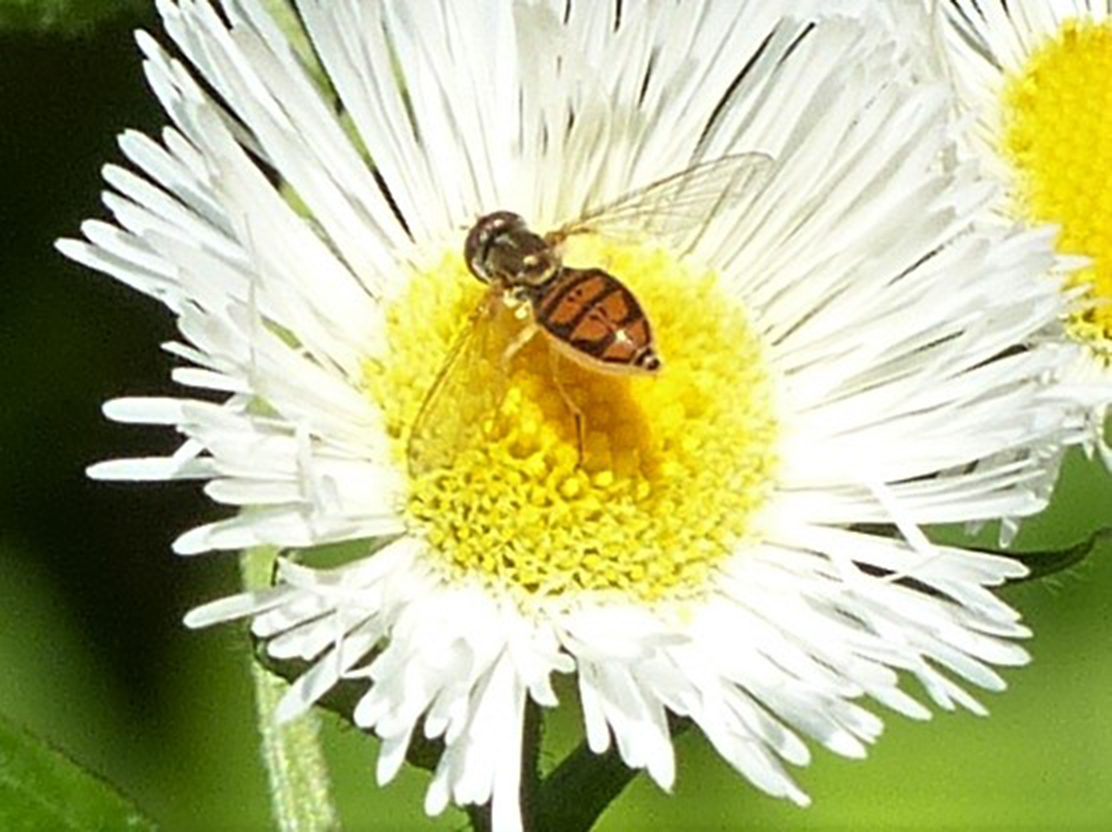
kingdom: Animalia
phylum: Arthropoda
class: Insecta
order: Diptera
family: Syrphidae
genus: Toxomerus
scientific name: Toxomerus marginatus
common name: Syrphid fly
